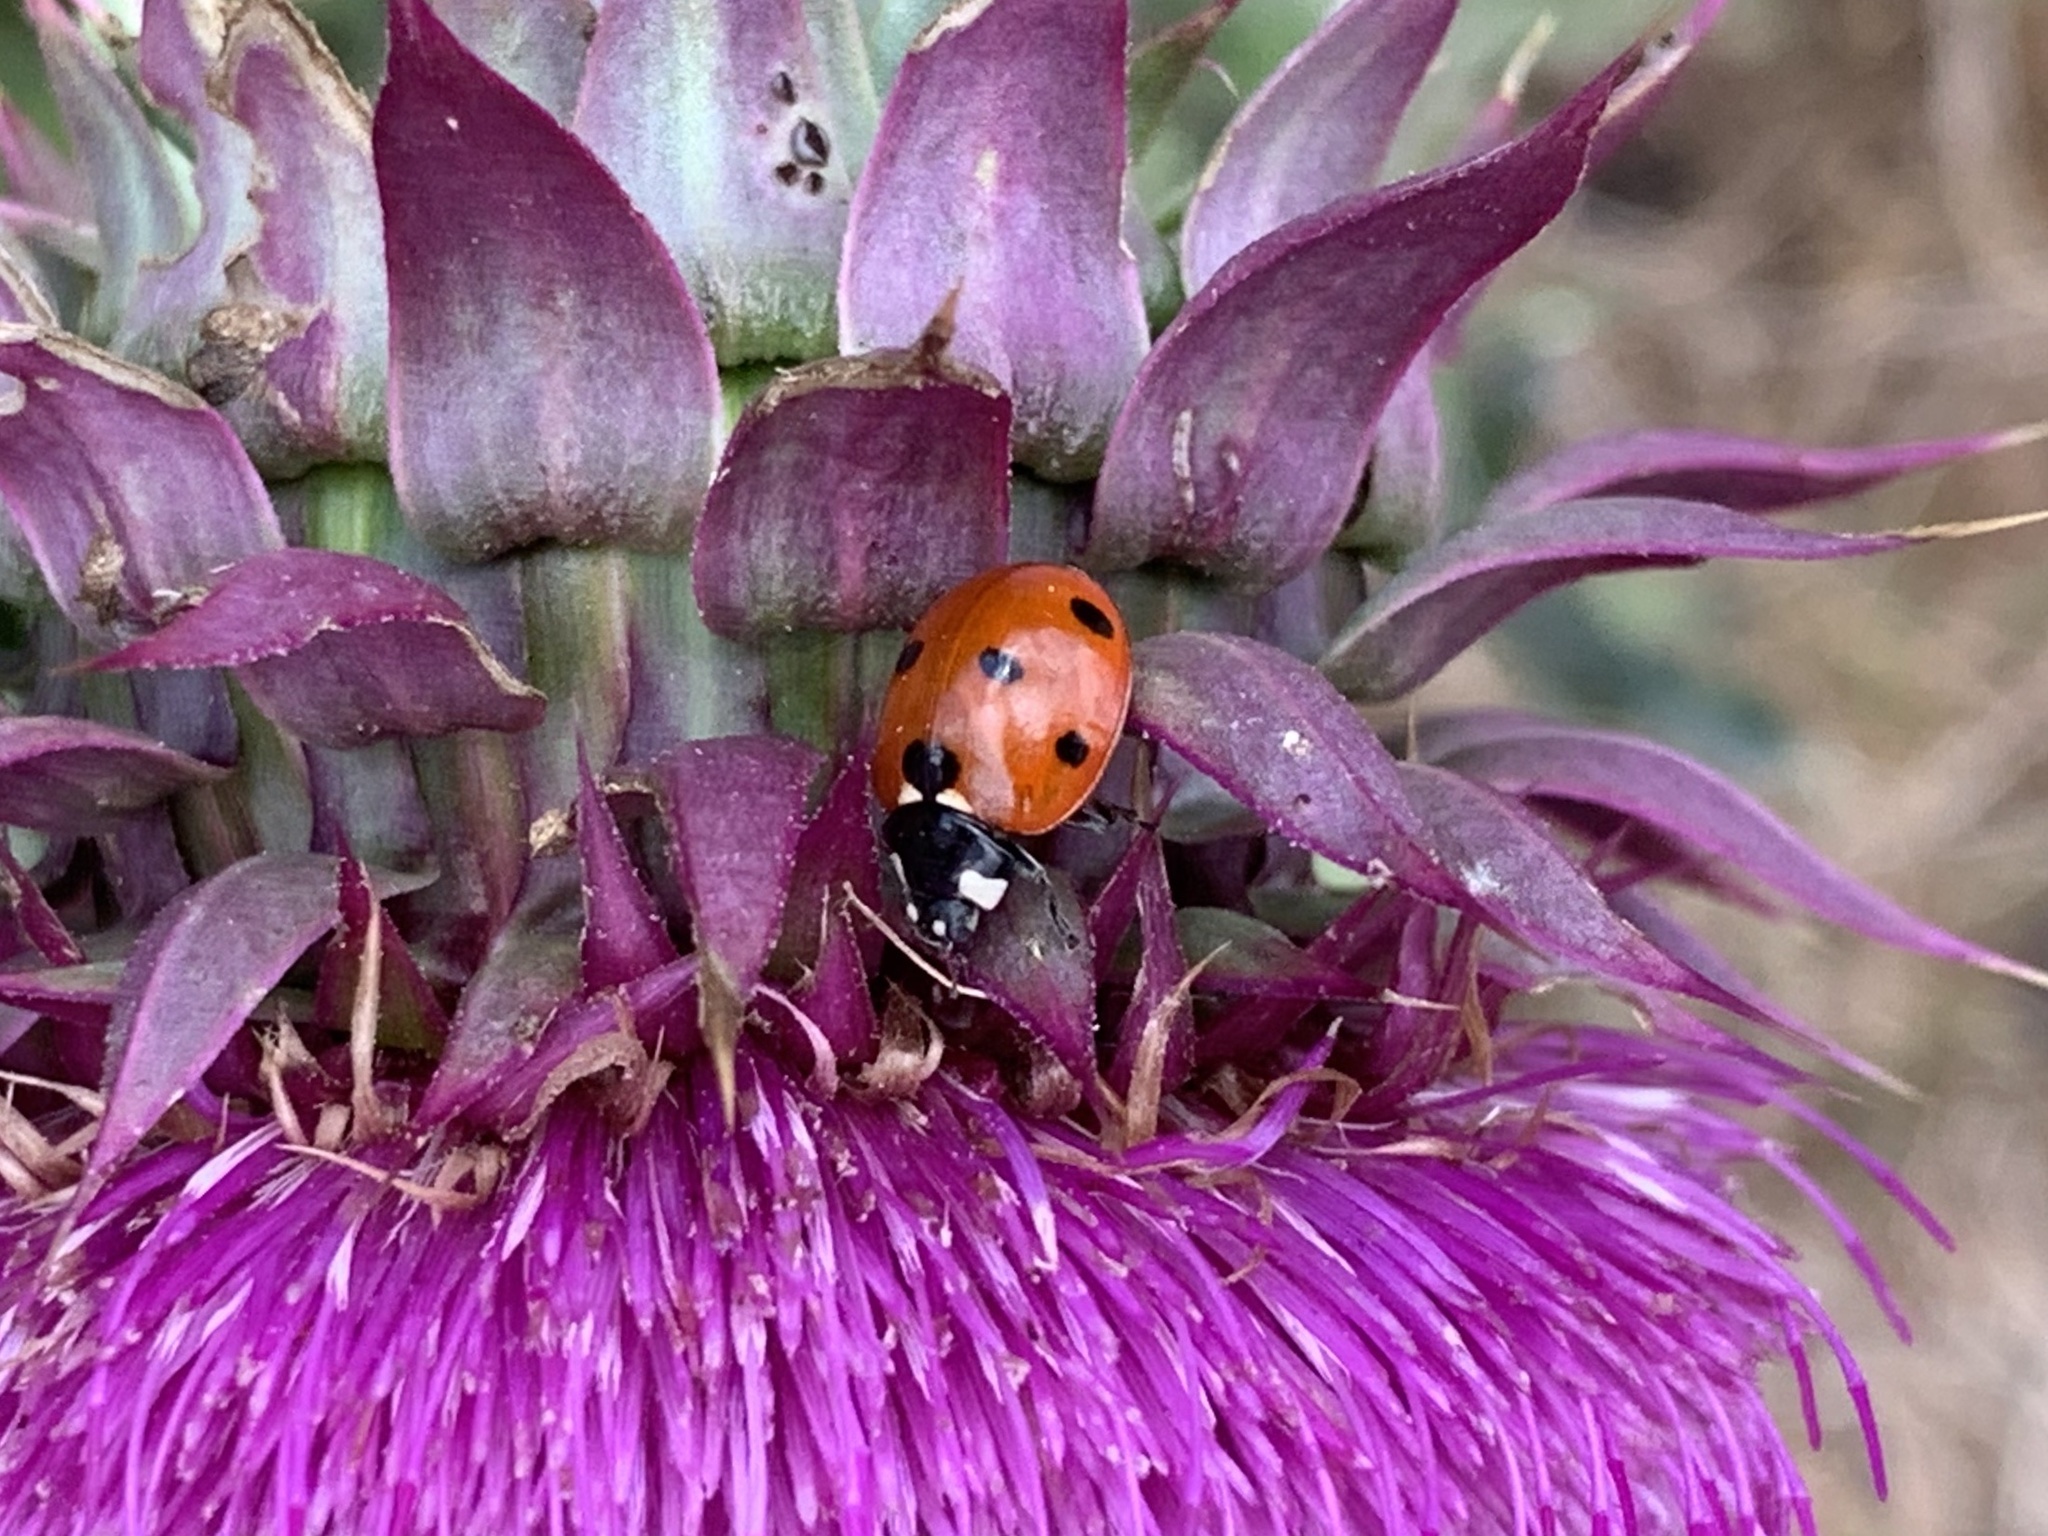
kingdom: Animalia
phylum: Arthropoda
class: Insecta
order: Coleoptera
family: Coccinellidae
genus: Coccinella
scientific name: Coccinella septempunctata
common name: Sevenspotted lady beetle
